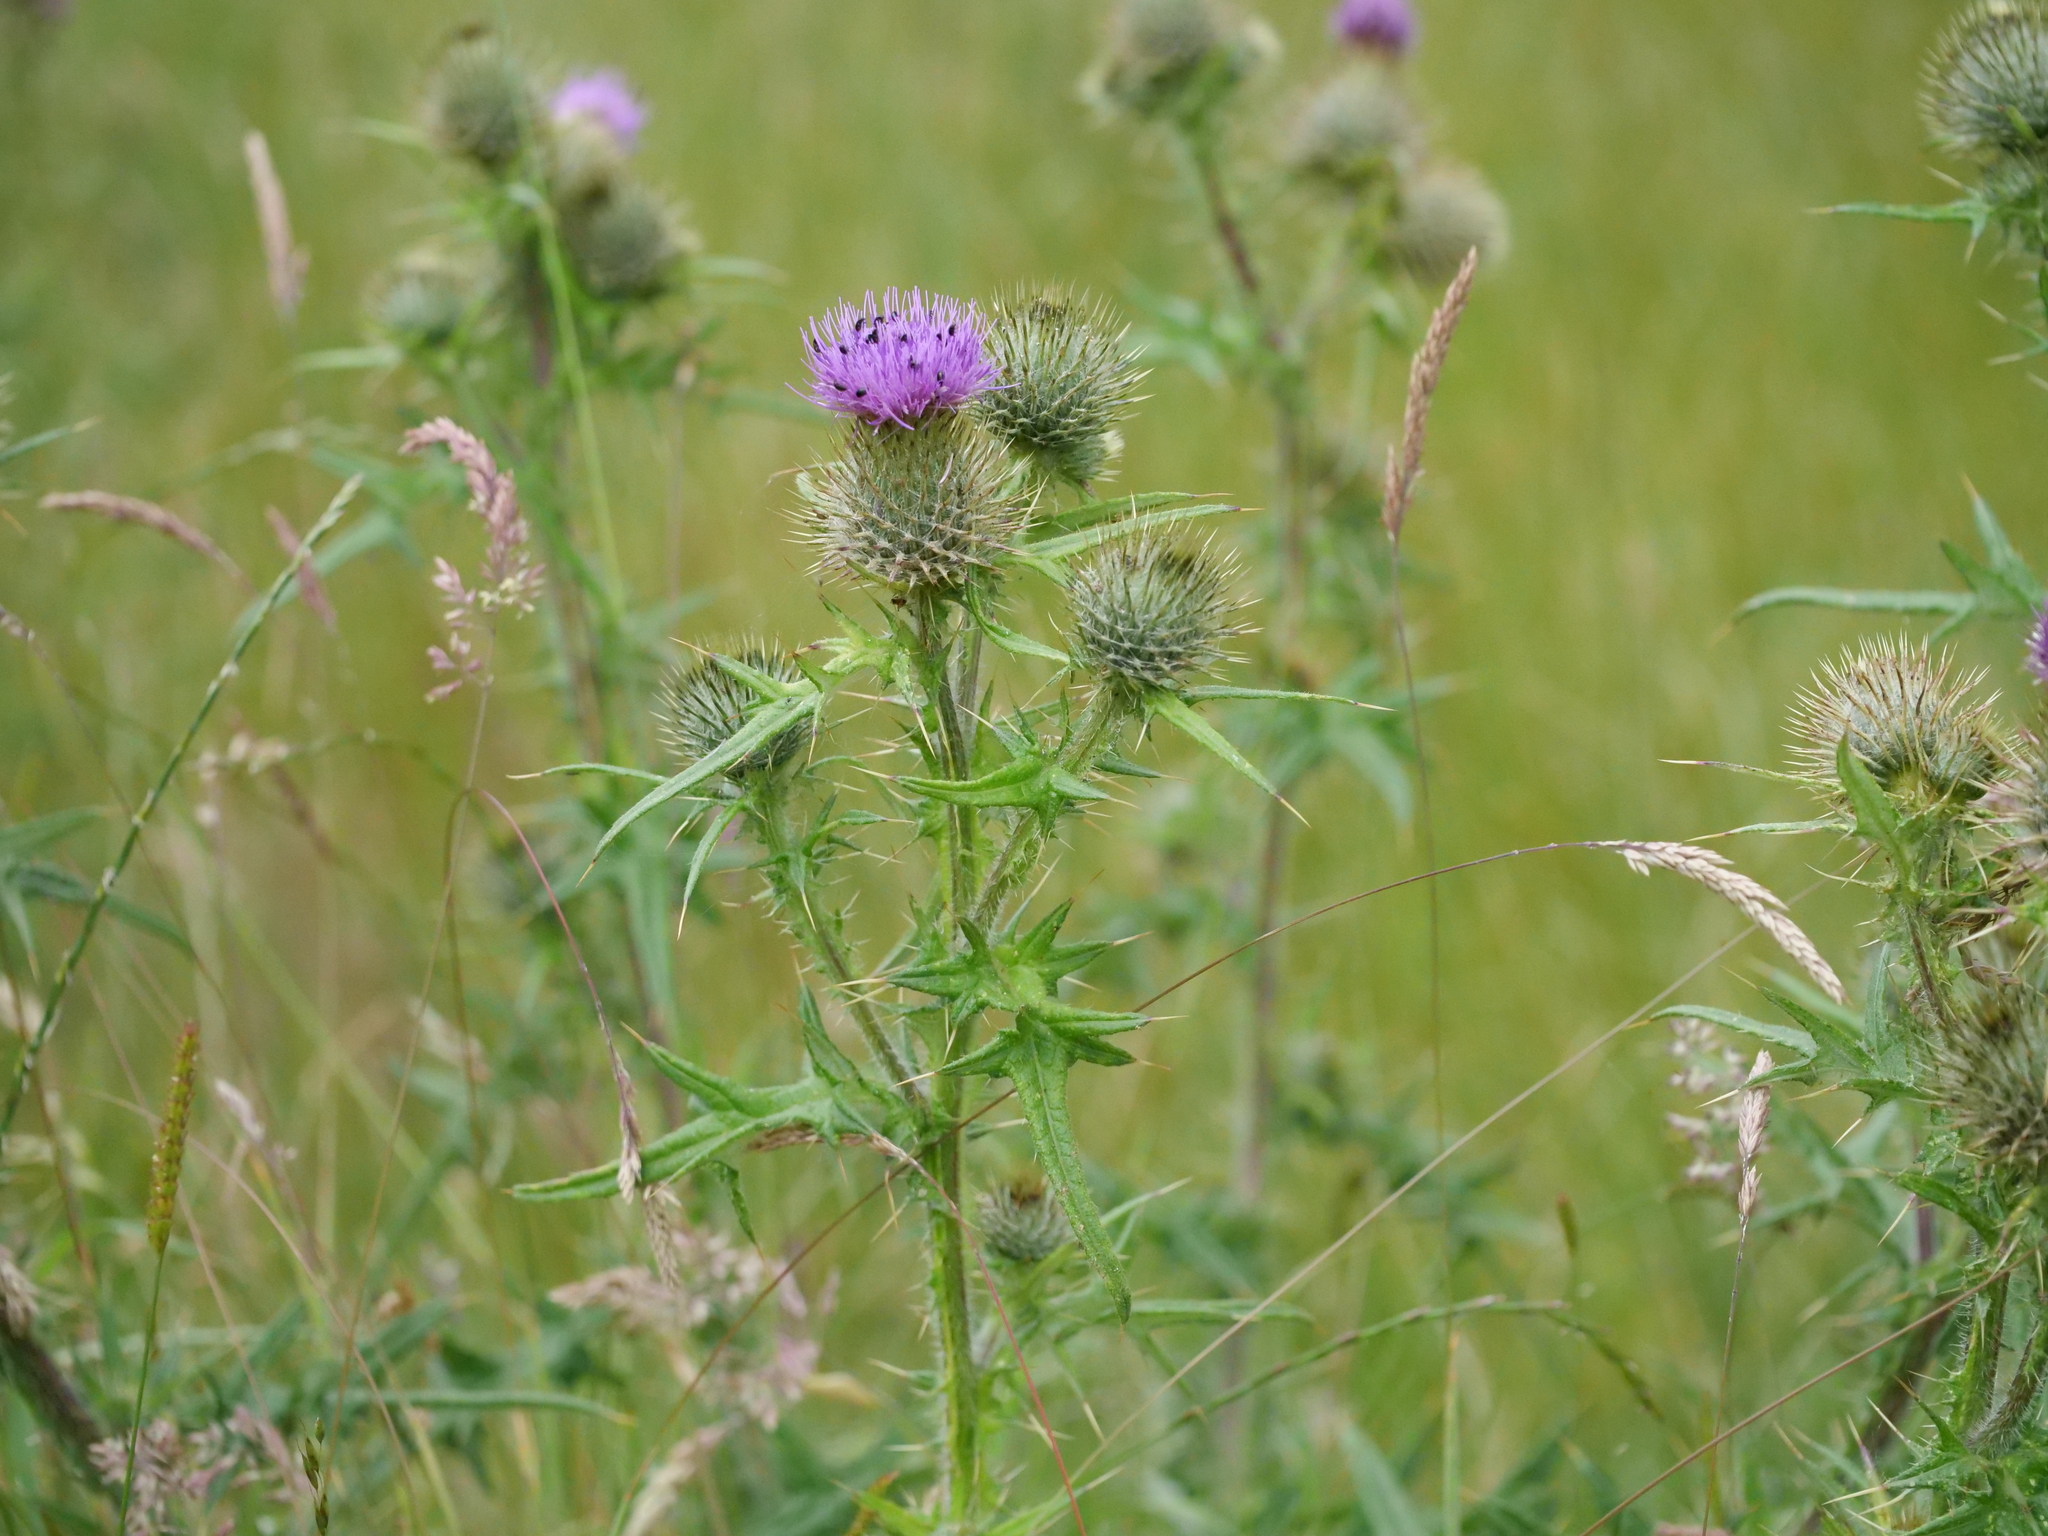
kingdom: Plantae
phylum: Tracheophyta
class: Magnoliopsida
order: Asterales
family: Asteraceae
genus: Cirsium
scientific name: Cirsium vulgare
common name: Bull thistle
